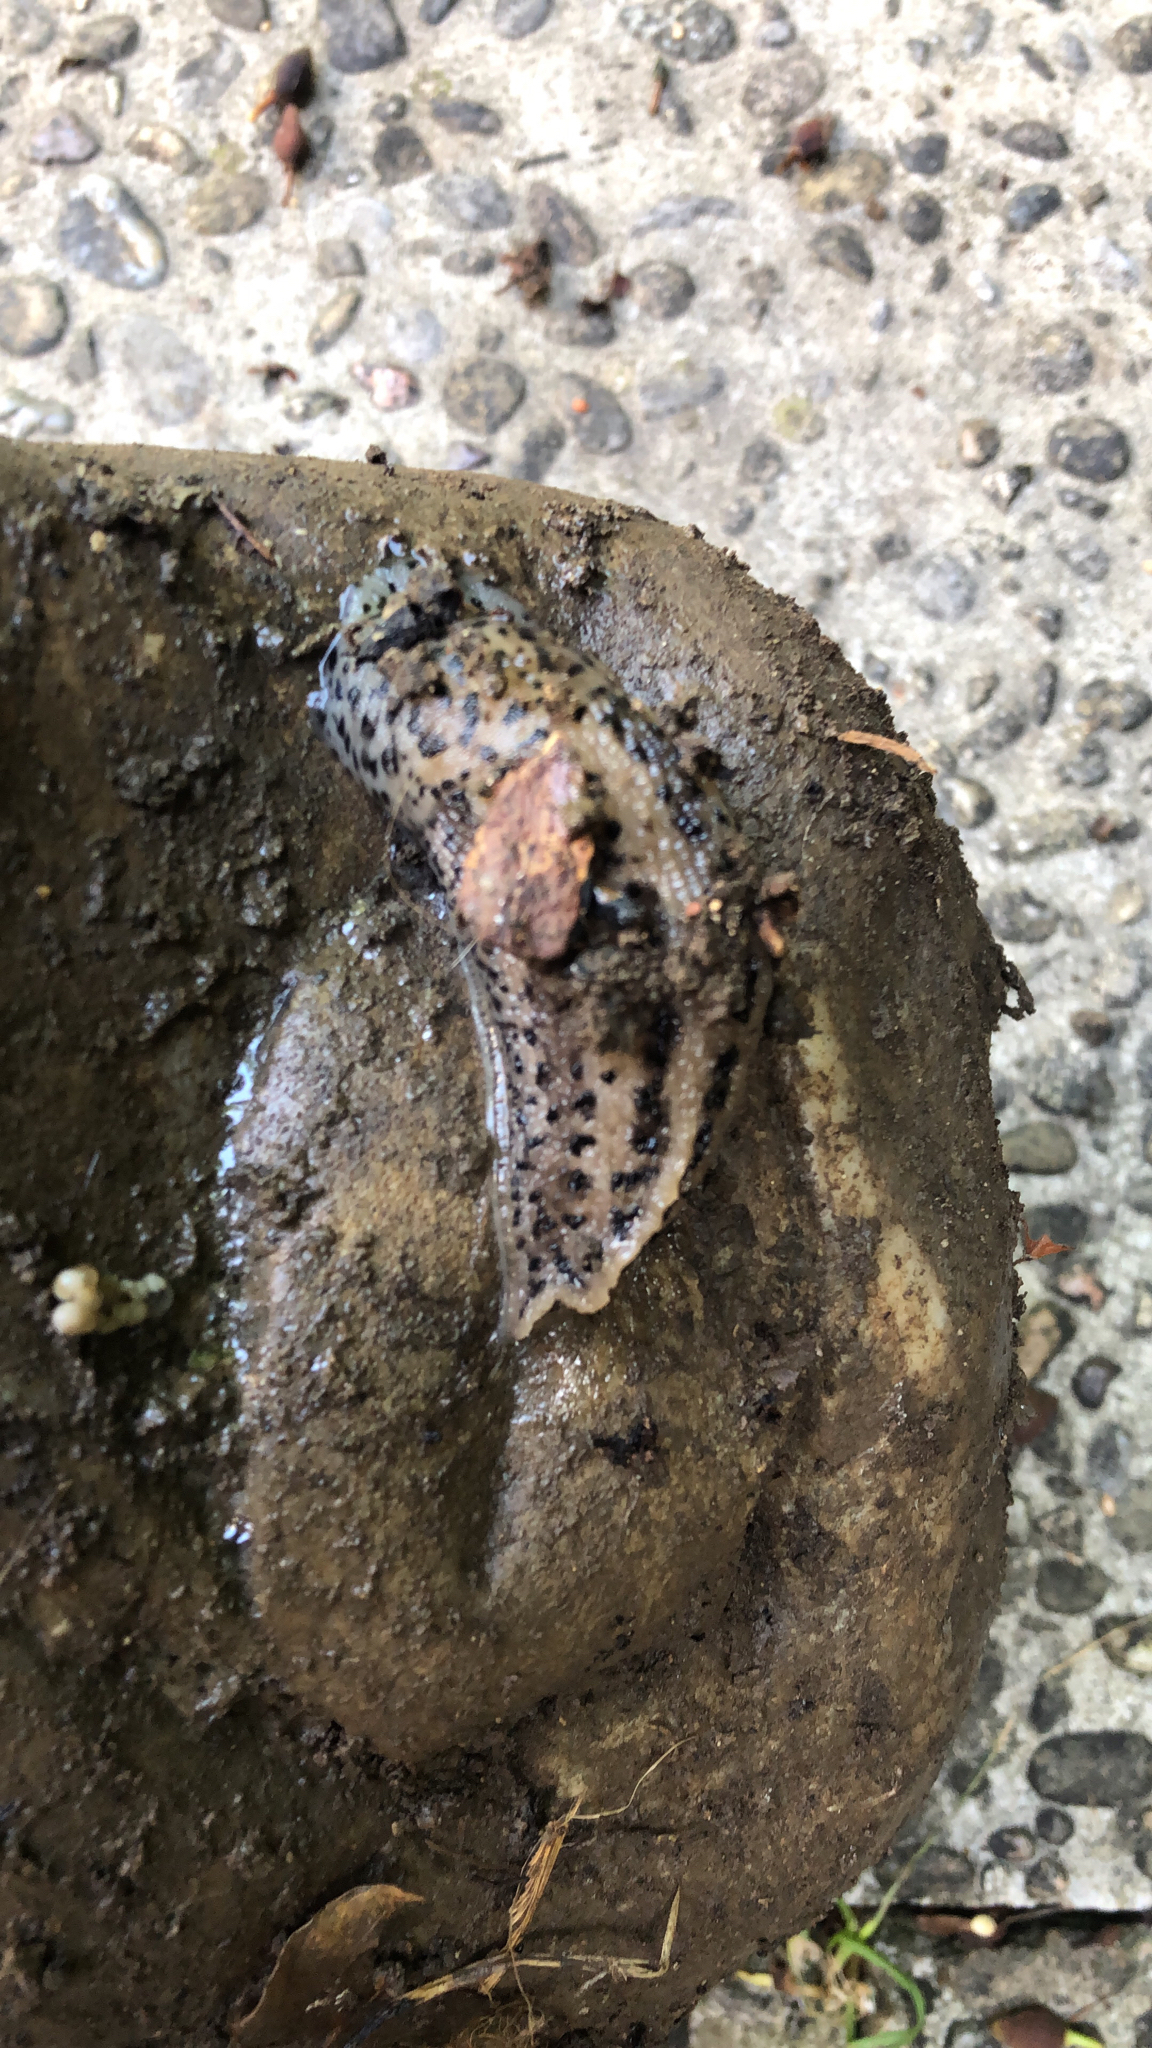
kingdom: Animalia
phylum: Mollusca
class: Gastropoda
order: Stylommatophora
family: Limacidae
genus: Limax
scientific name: Limax maximus
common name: Great grey slug
